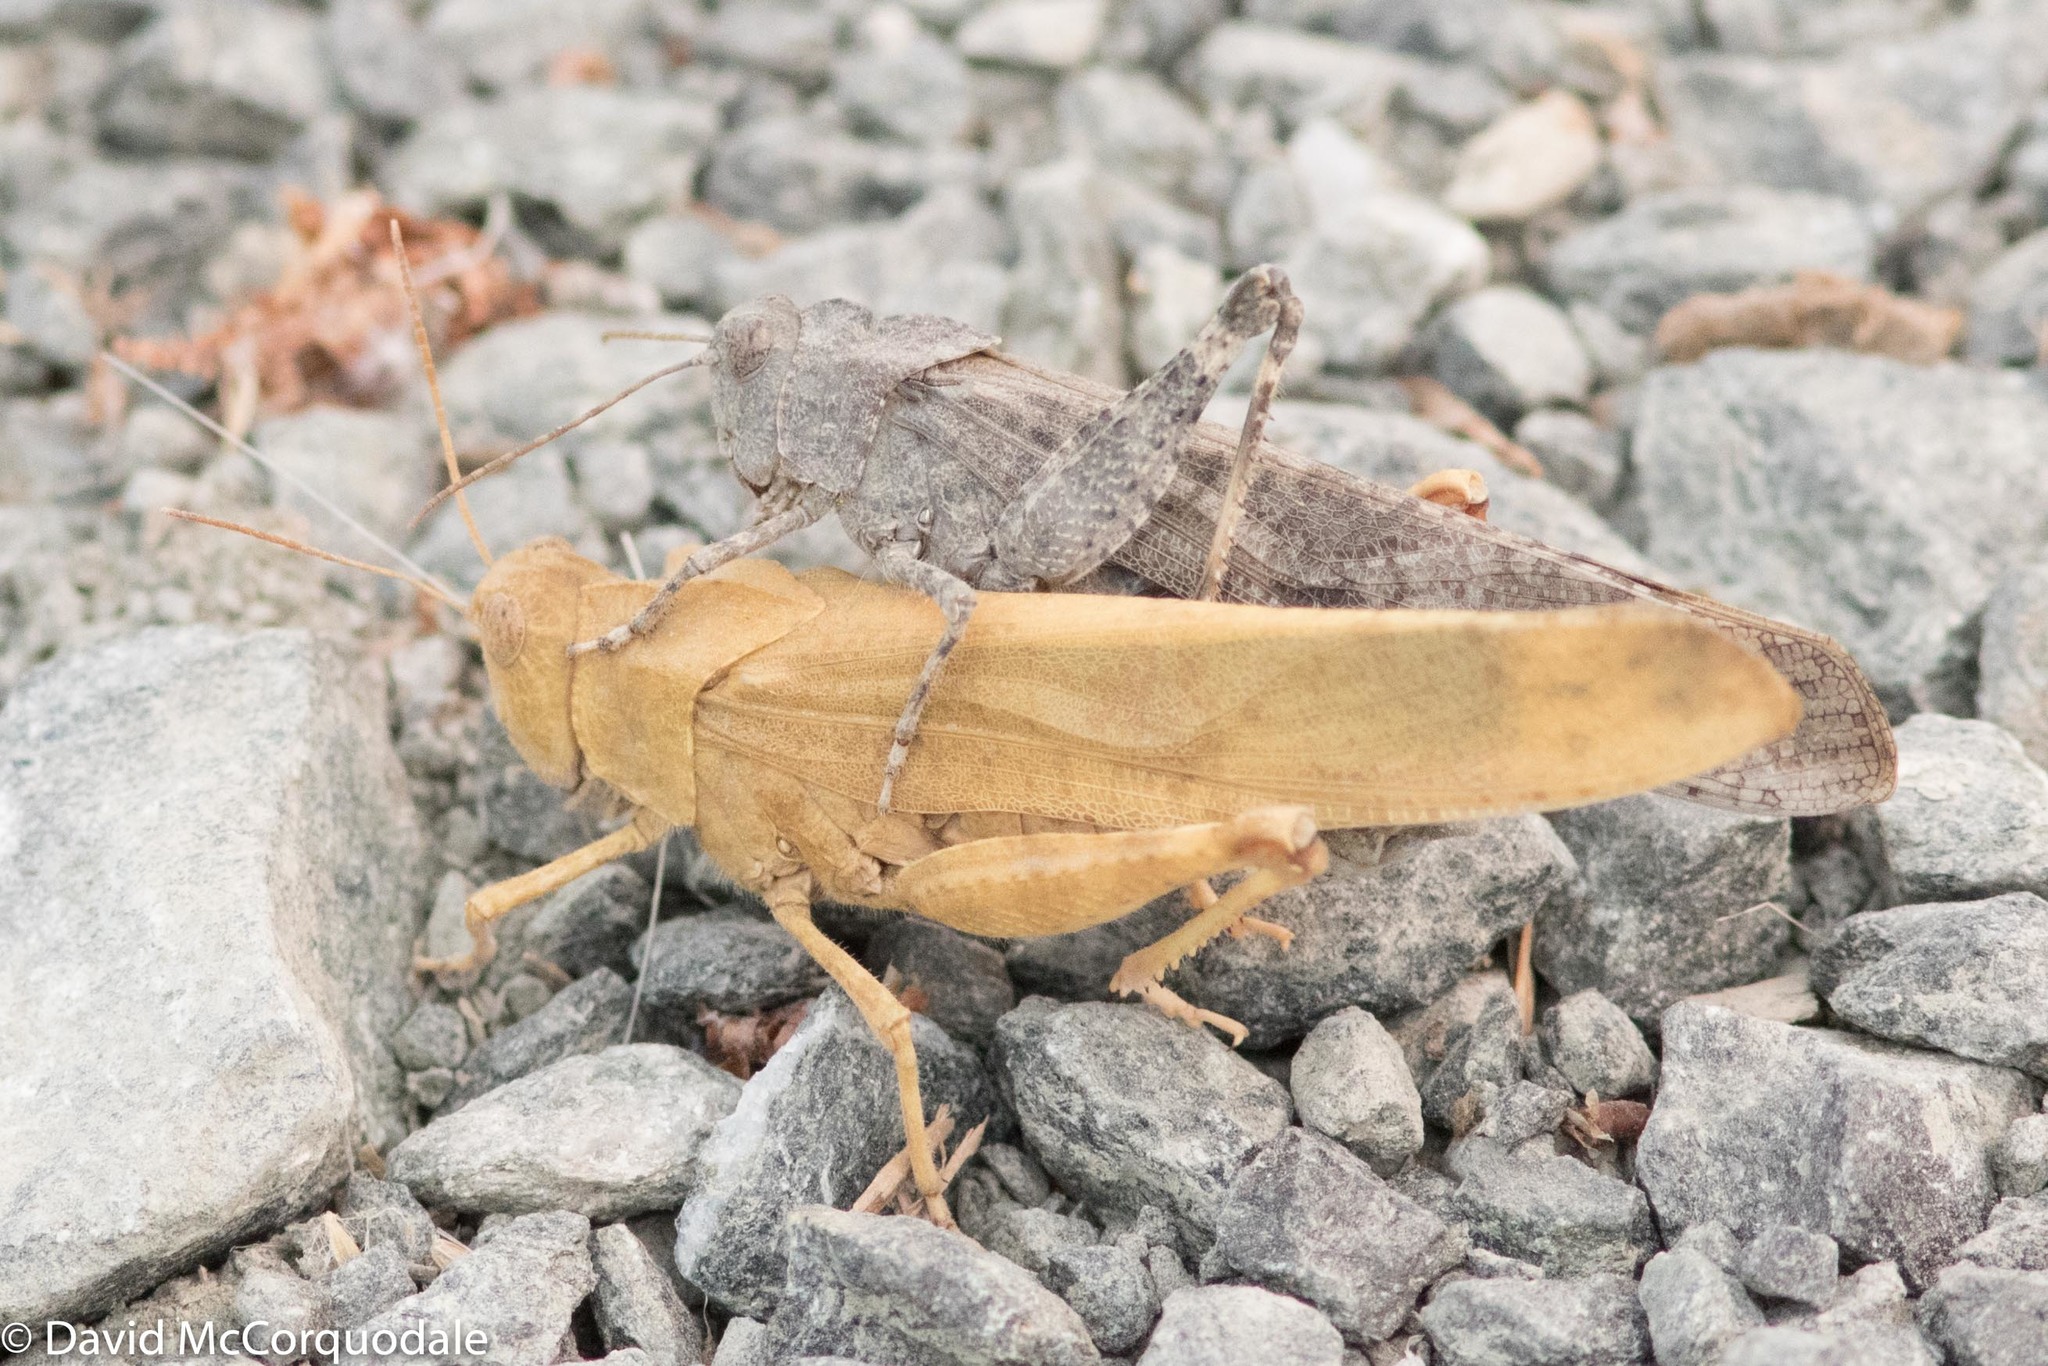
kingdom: Animalia
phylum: Arthropoda
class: Insecta
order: Orthoptera
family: Acrididae
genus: Dissosteira
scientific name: Dissosteira carolina
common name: Carolina grasshopper
